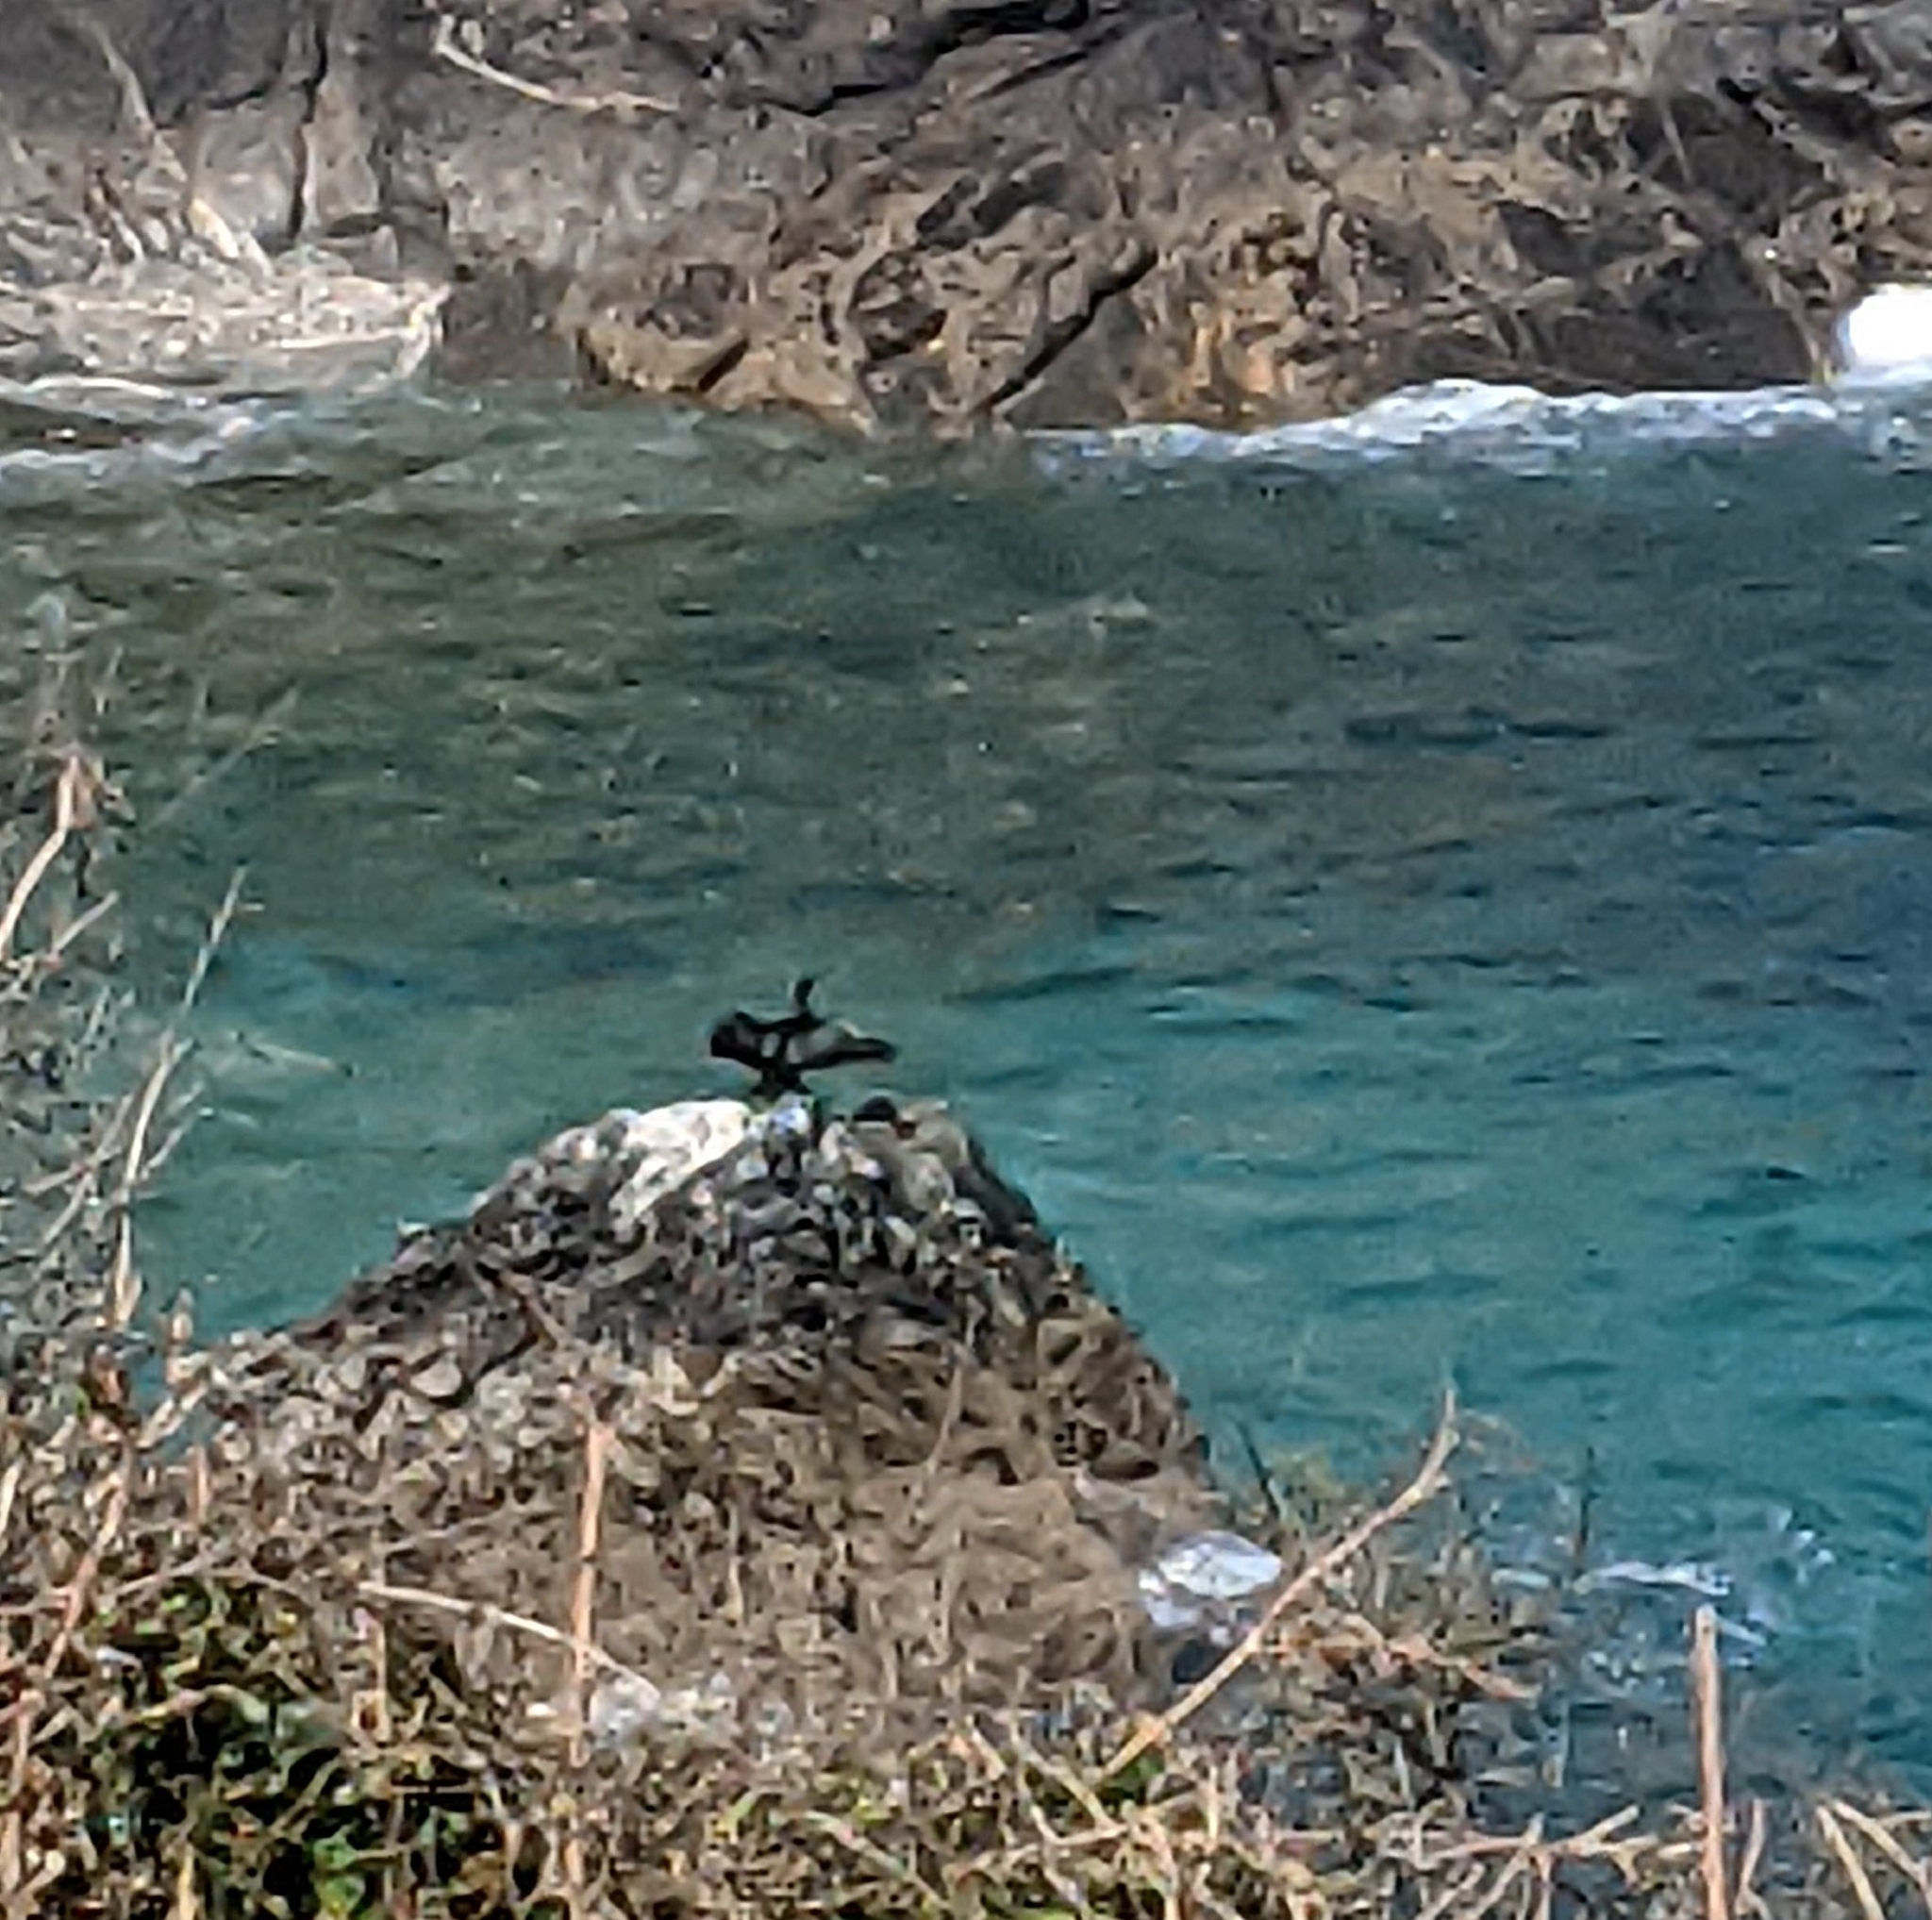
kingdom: Animalia
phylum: Chordata
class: Aves
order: Suliformes
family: Phalacrocoracidae
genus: Phalacrocorax
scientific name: Phalacrocorax carbo
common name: Great cormorant
